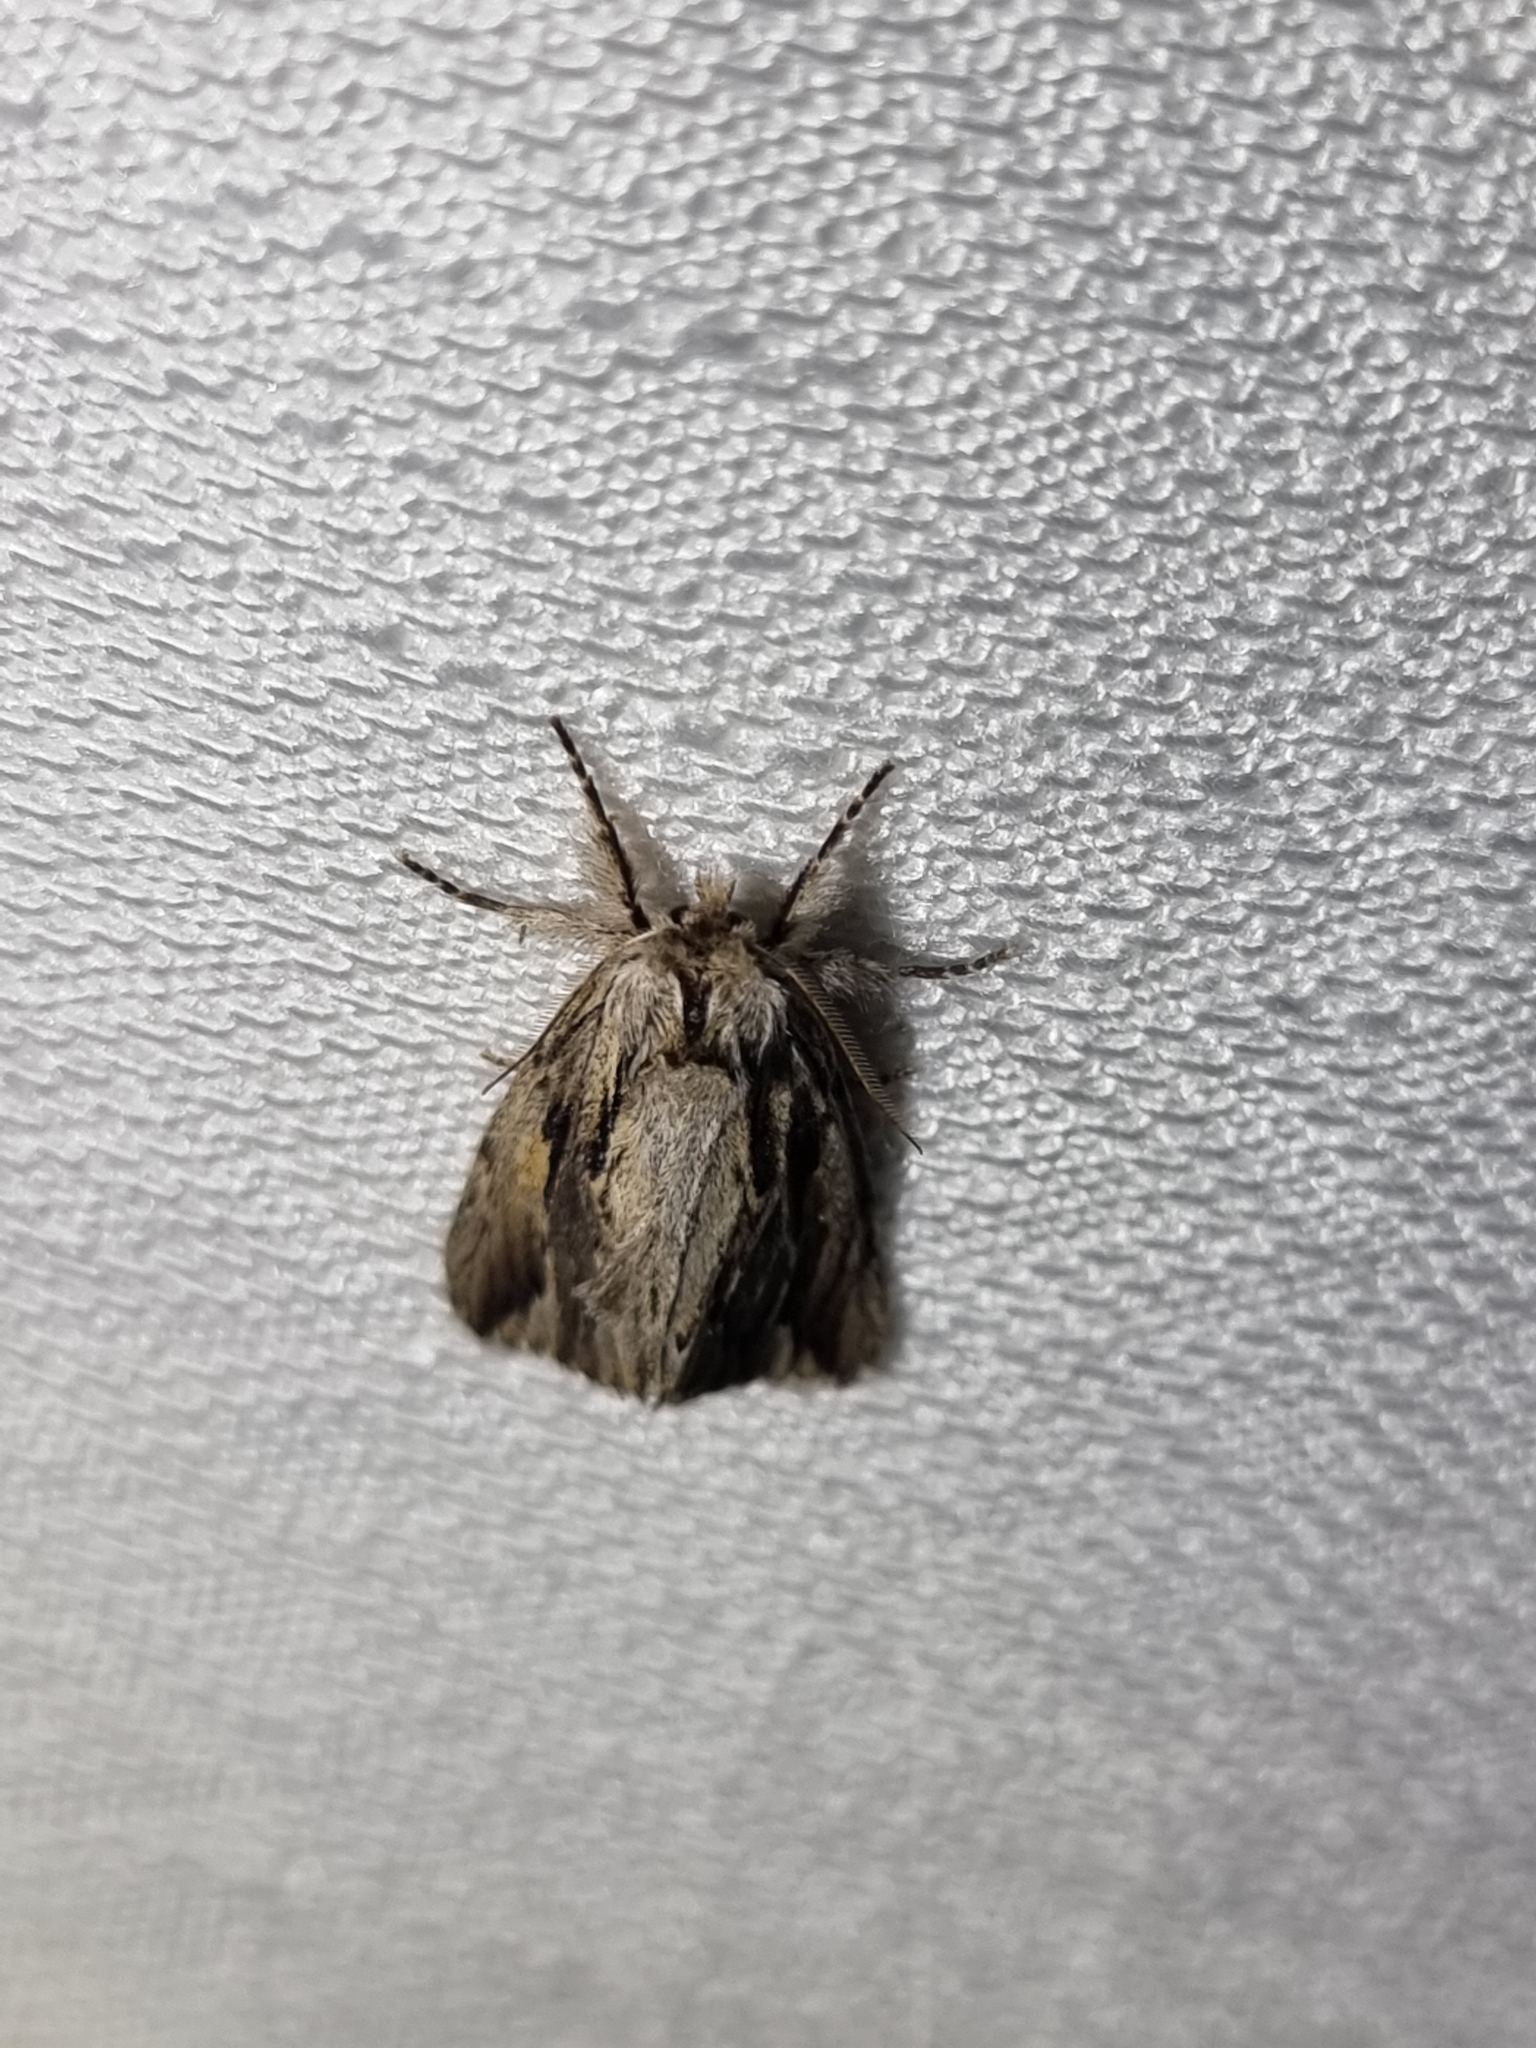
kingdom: Animalia
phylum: Arthropoda
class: Insecta
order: Lepidoptera
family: Notodontidae
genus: Ecnomodes
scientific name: Ecnomodes sagittaria
